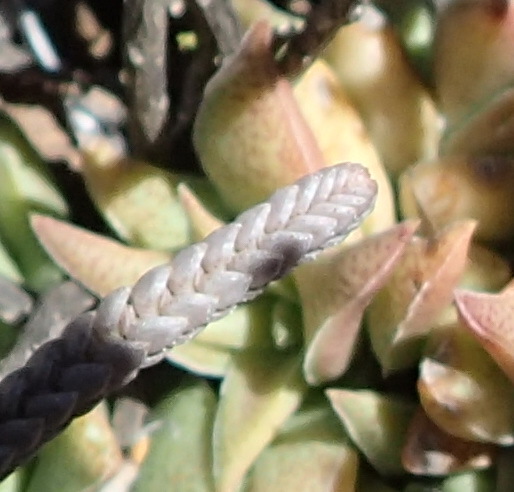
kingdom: Plantae
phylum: Tracheophyta
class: Magnoliopsida
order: Saxifragales
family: Crassulaceae
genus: Crassula
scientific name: Crassula muscosa
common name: Toy-cypress
